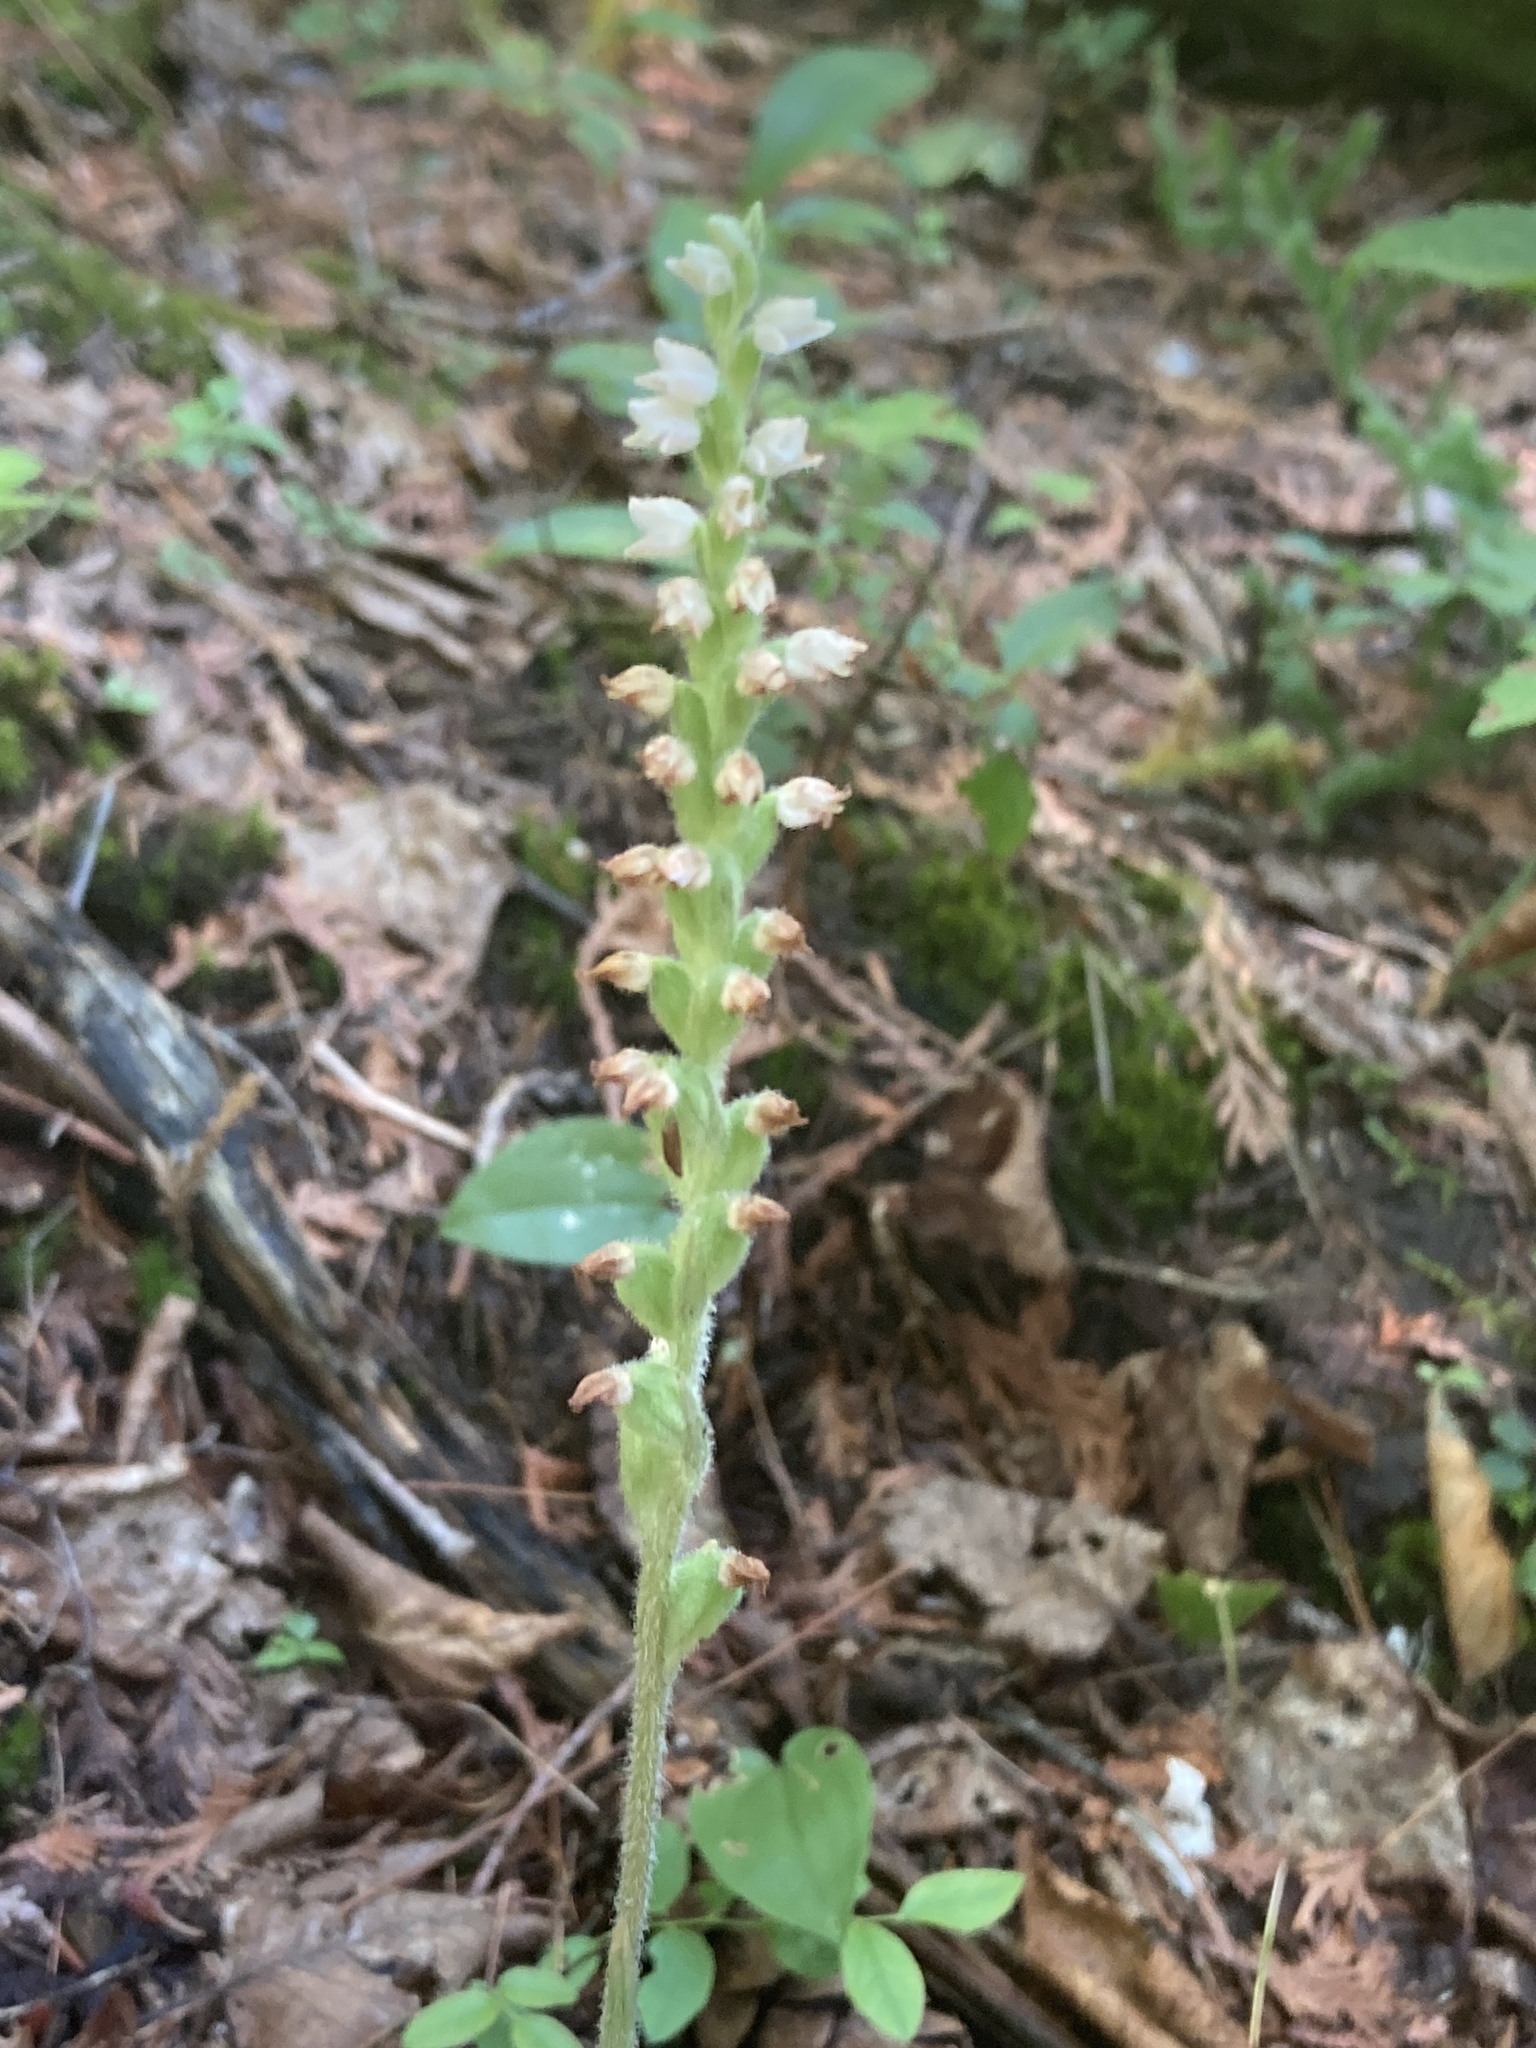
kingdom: Plantae
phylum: Tracheophyta
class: Liliopsida
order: Asparagales
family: Orchidaceae
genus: Goodyera
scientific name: Goodyera tesselata
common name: Checkered rattlesnake-plantain
